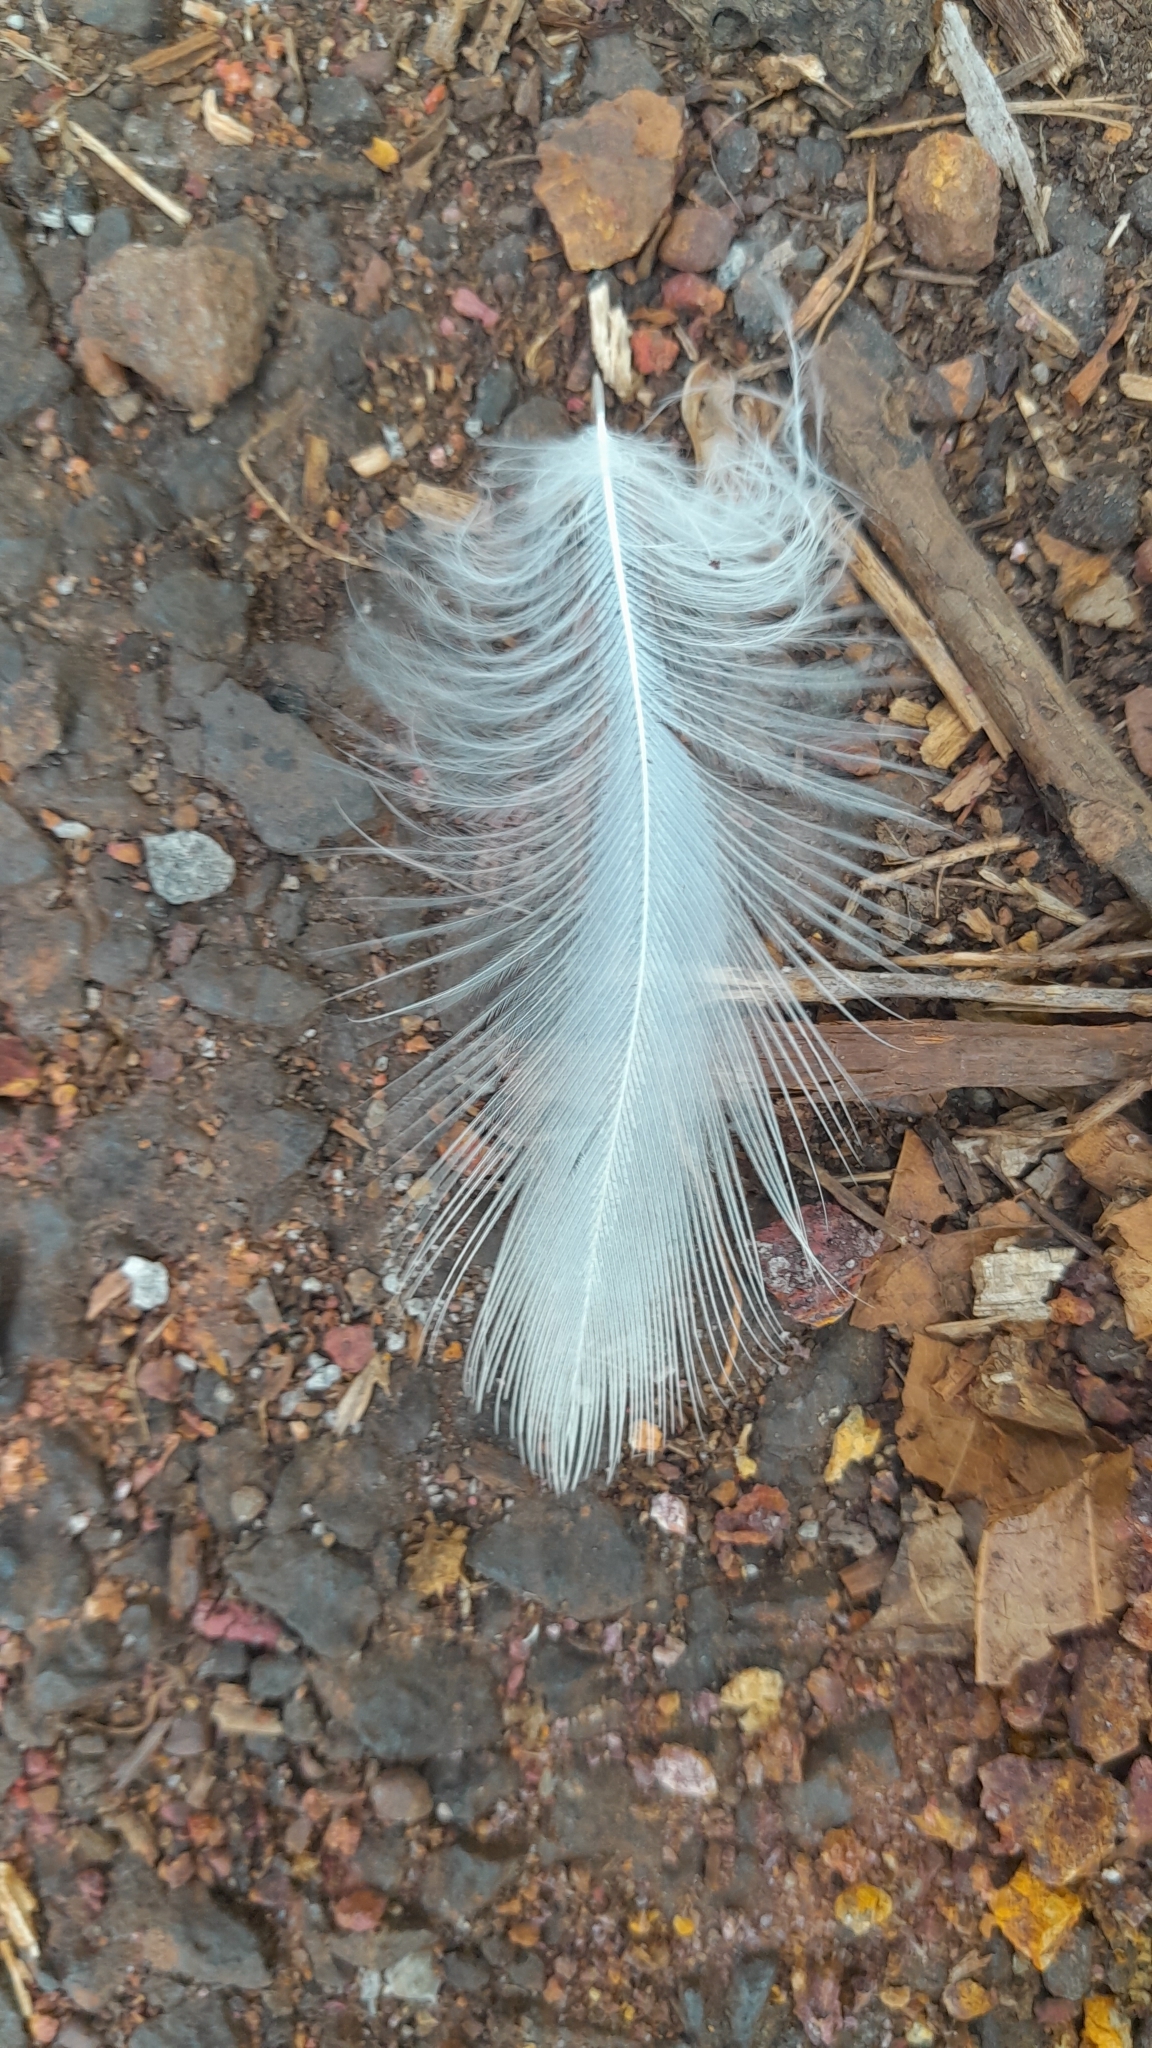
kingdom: Animalia
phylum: Chordata
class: Aves
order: Columbiformes
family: Columbidae
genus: Columba
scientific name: Columba livia
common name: Rock pigeon
